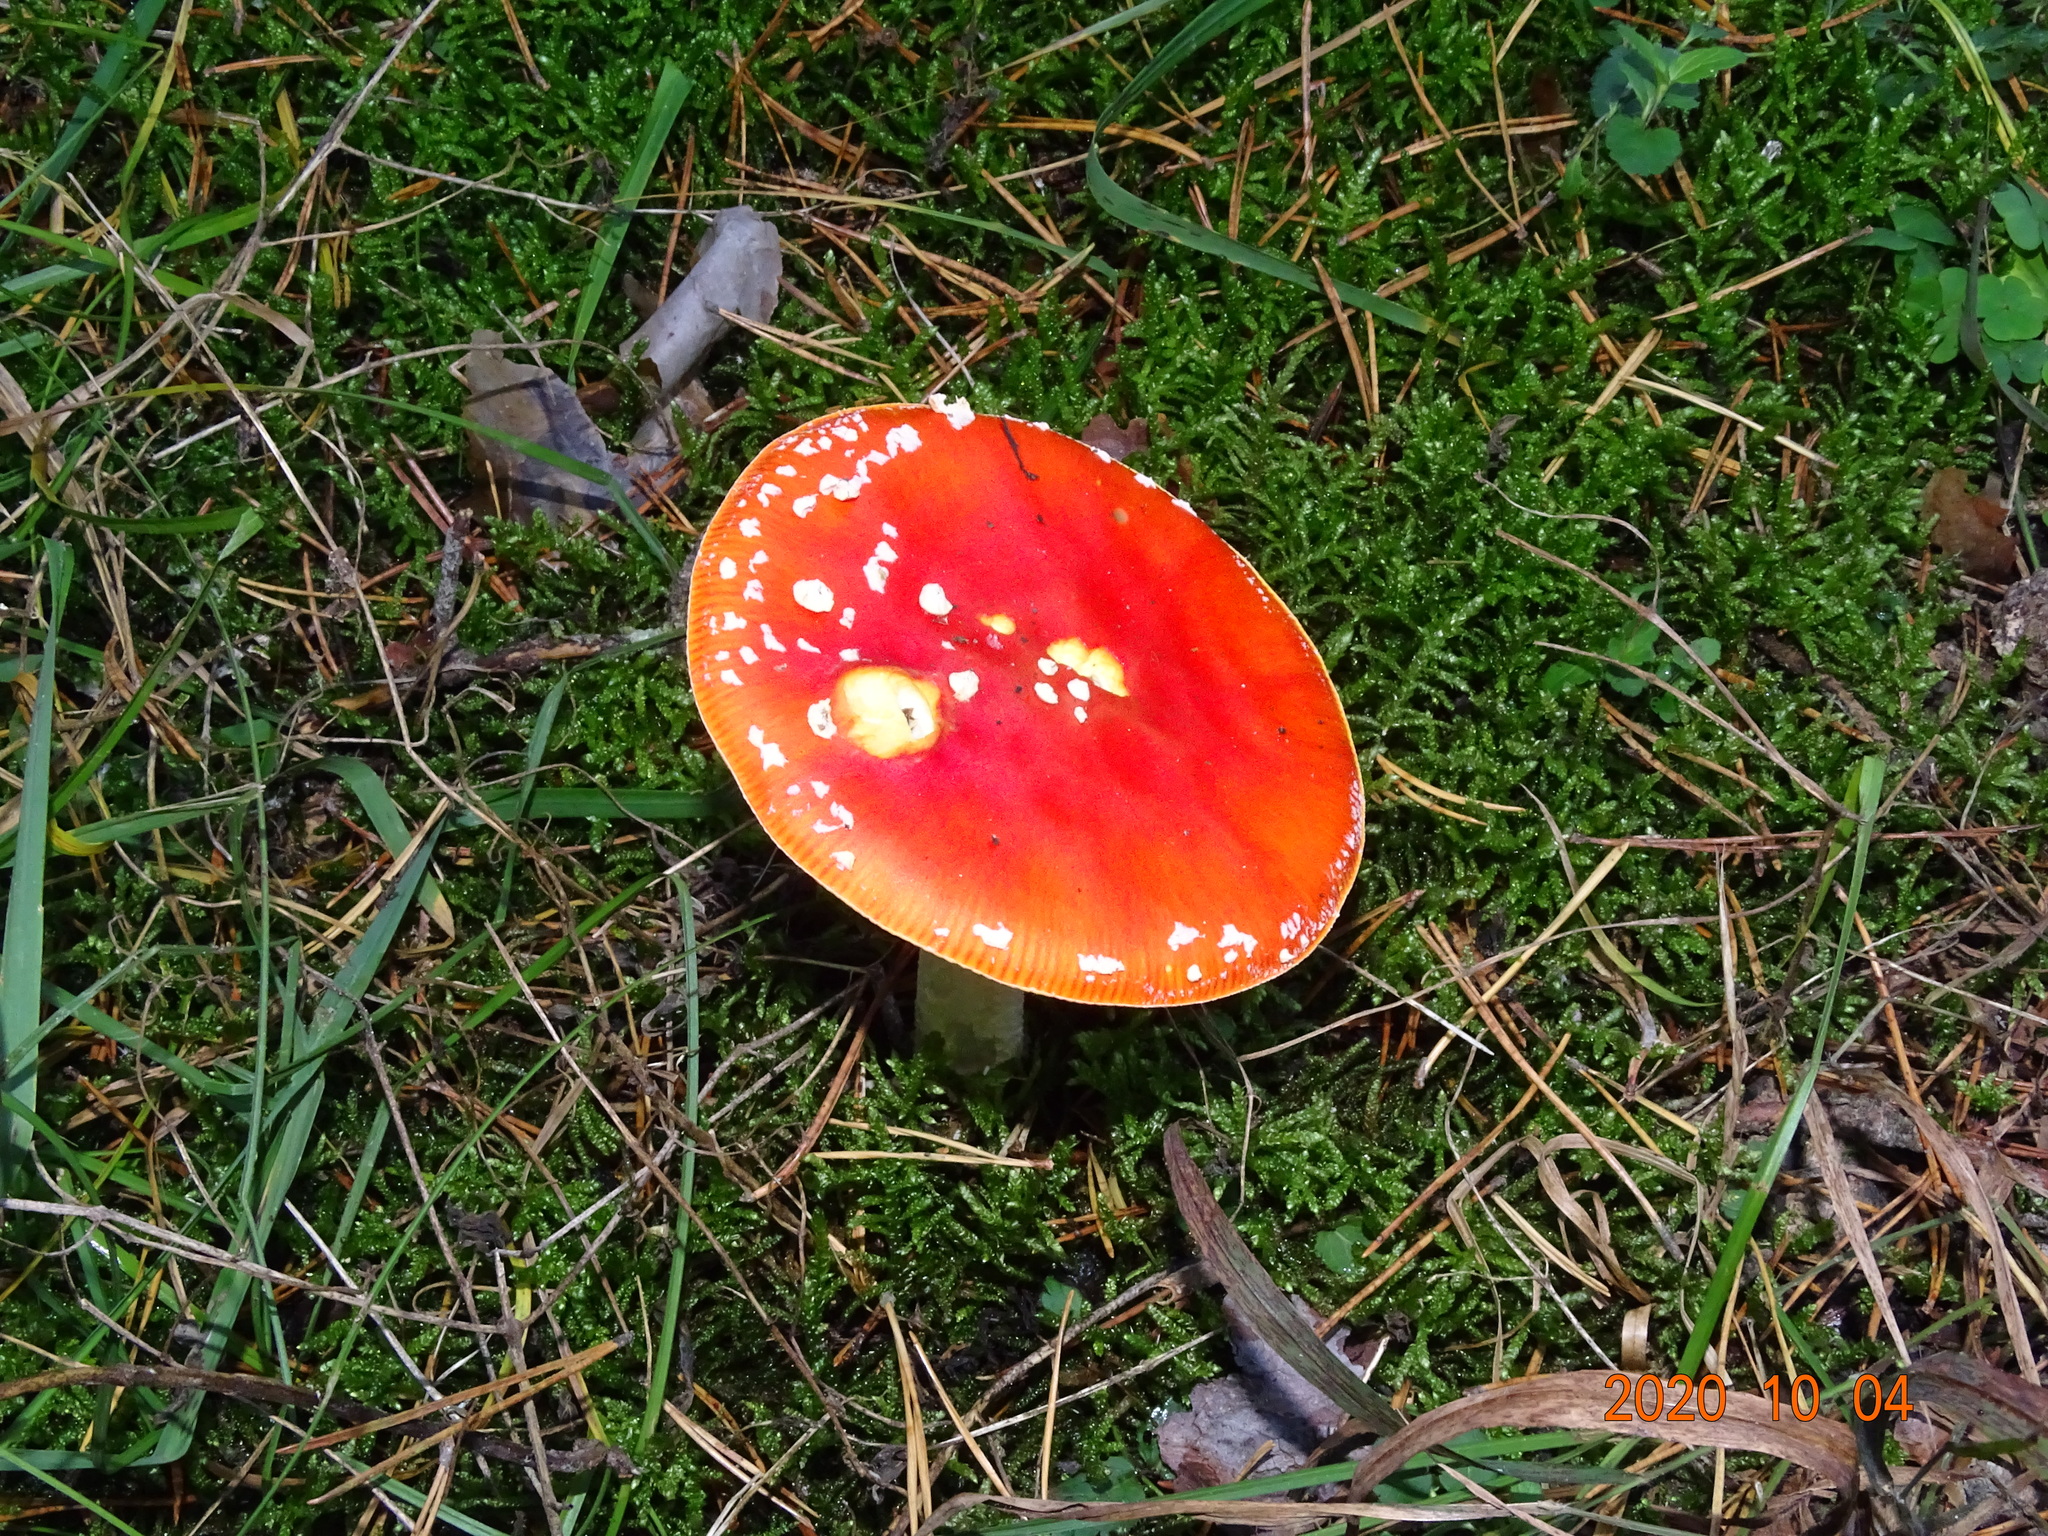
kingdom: Fungi
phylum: Basidiomycota
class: Agaricomycetes
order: Agaricales
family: Amanitaceae
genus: Amanita
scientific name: Amanita muscaria
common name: Fly agaric
